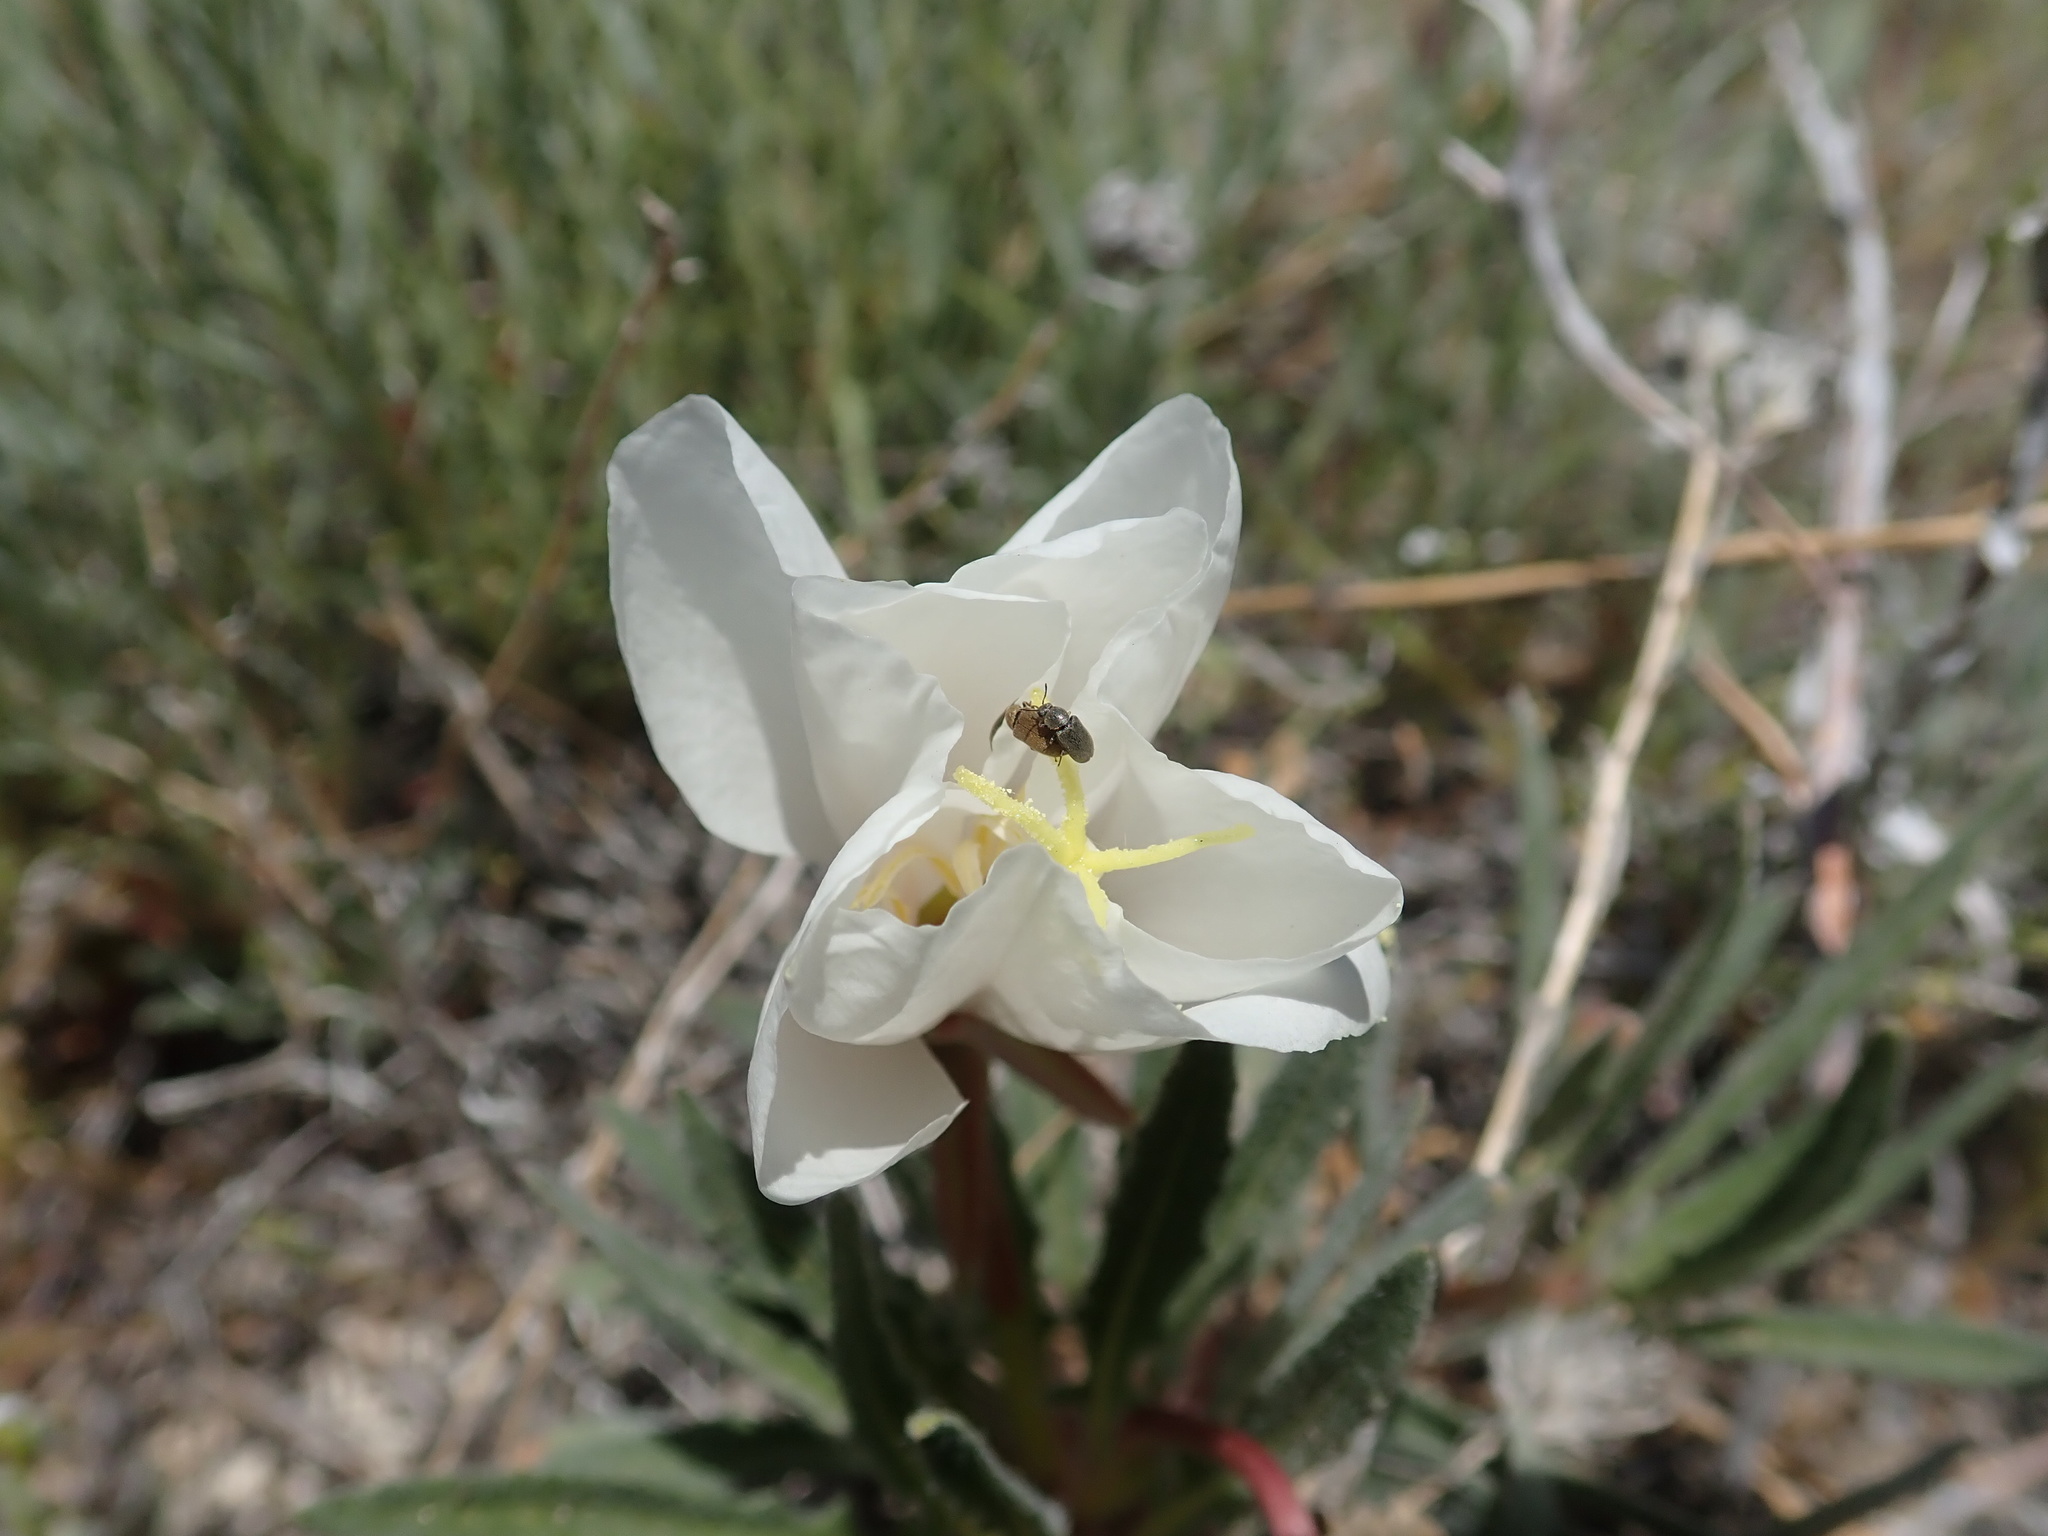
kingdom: Plantae
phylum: Tracheophyta
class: Magnoliopsida
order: Myrtales
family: Onagraceae
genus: Oenothera
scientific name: Oenothera californica
